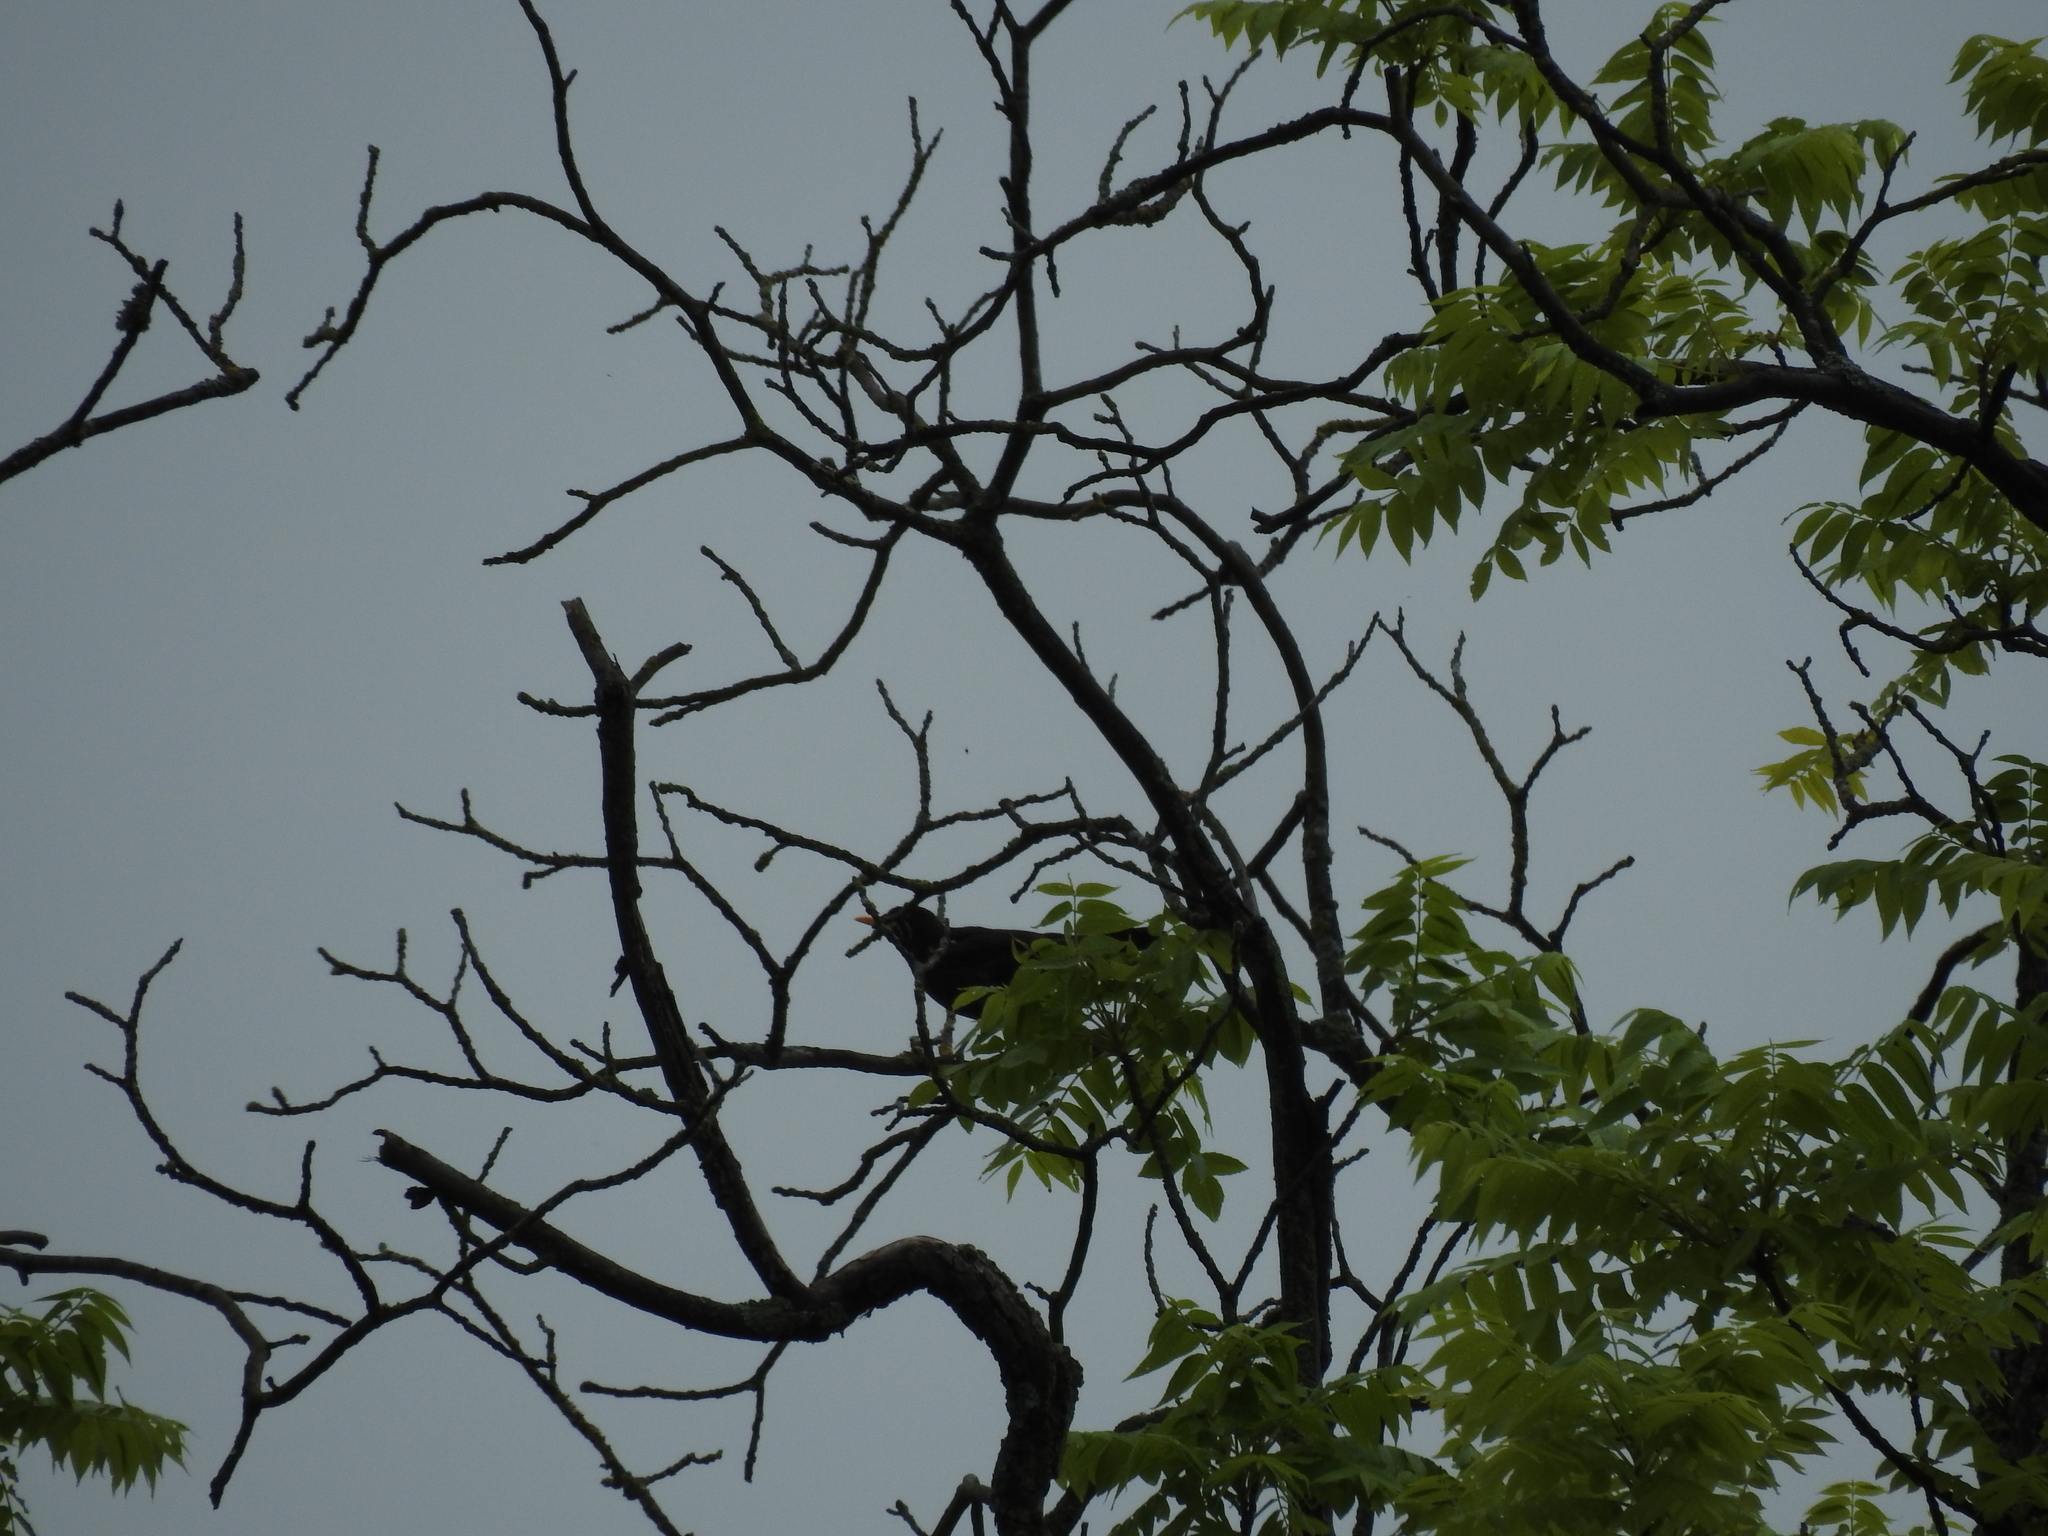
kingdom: Animalia
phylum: Chordata
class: Aves
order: Passeriformes
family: Turdidae
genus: Turdus
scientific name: Turdus merula
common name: Common blackbird
